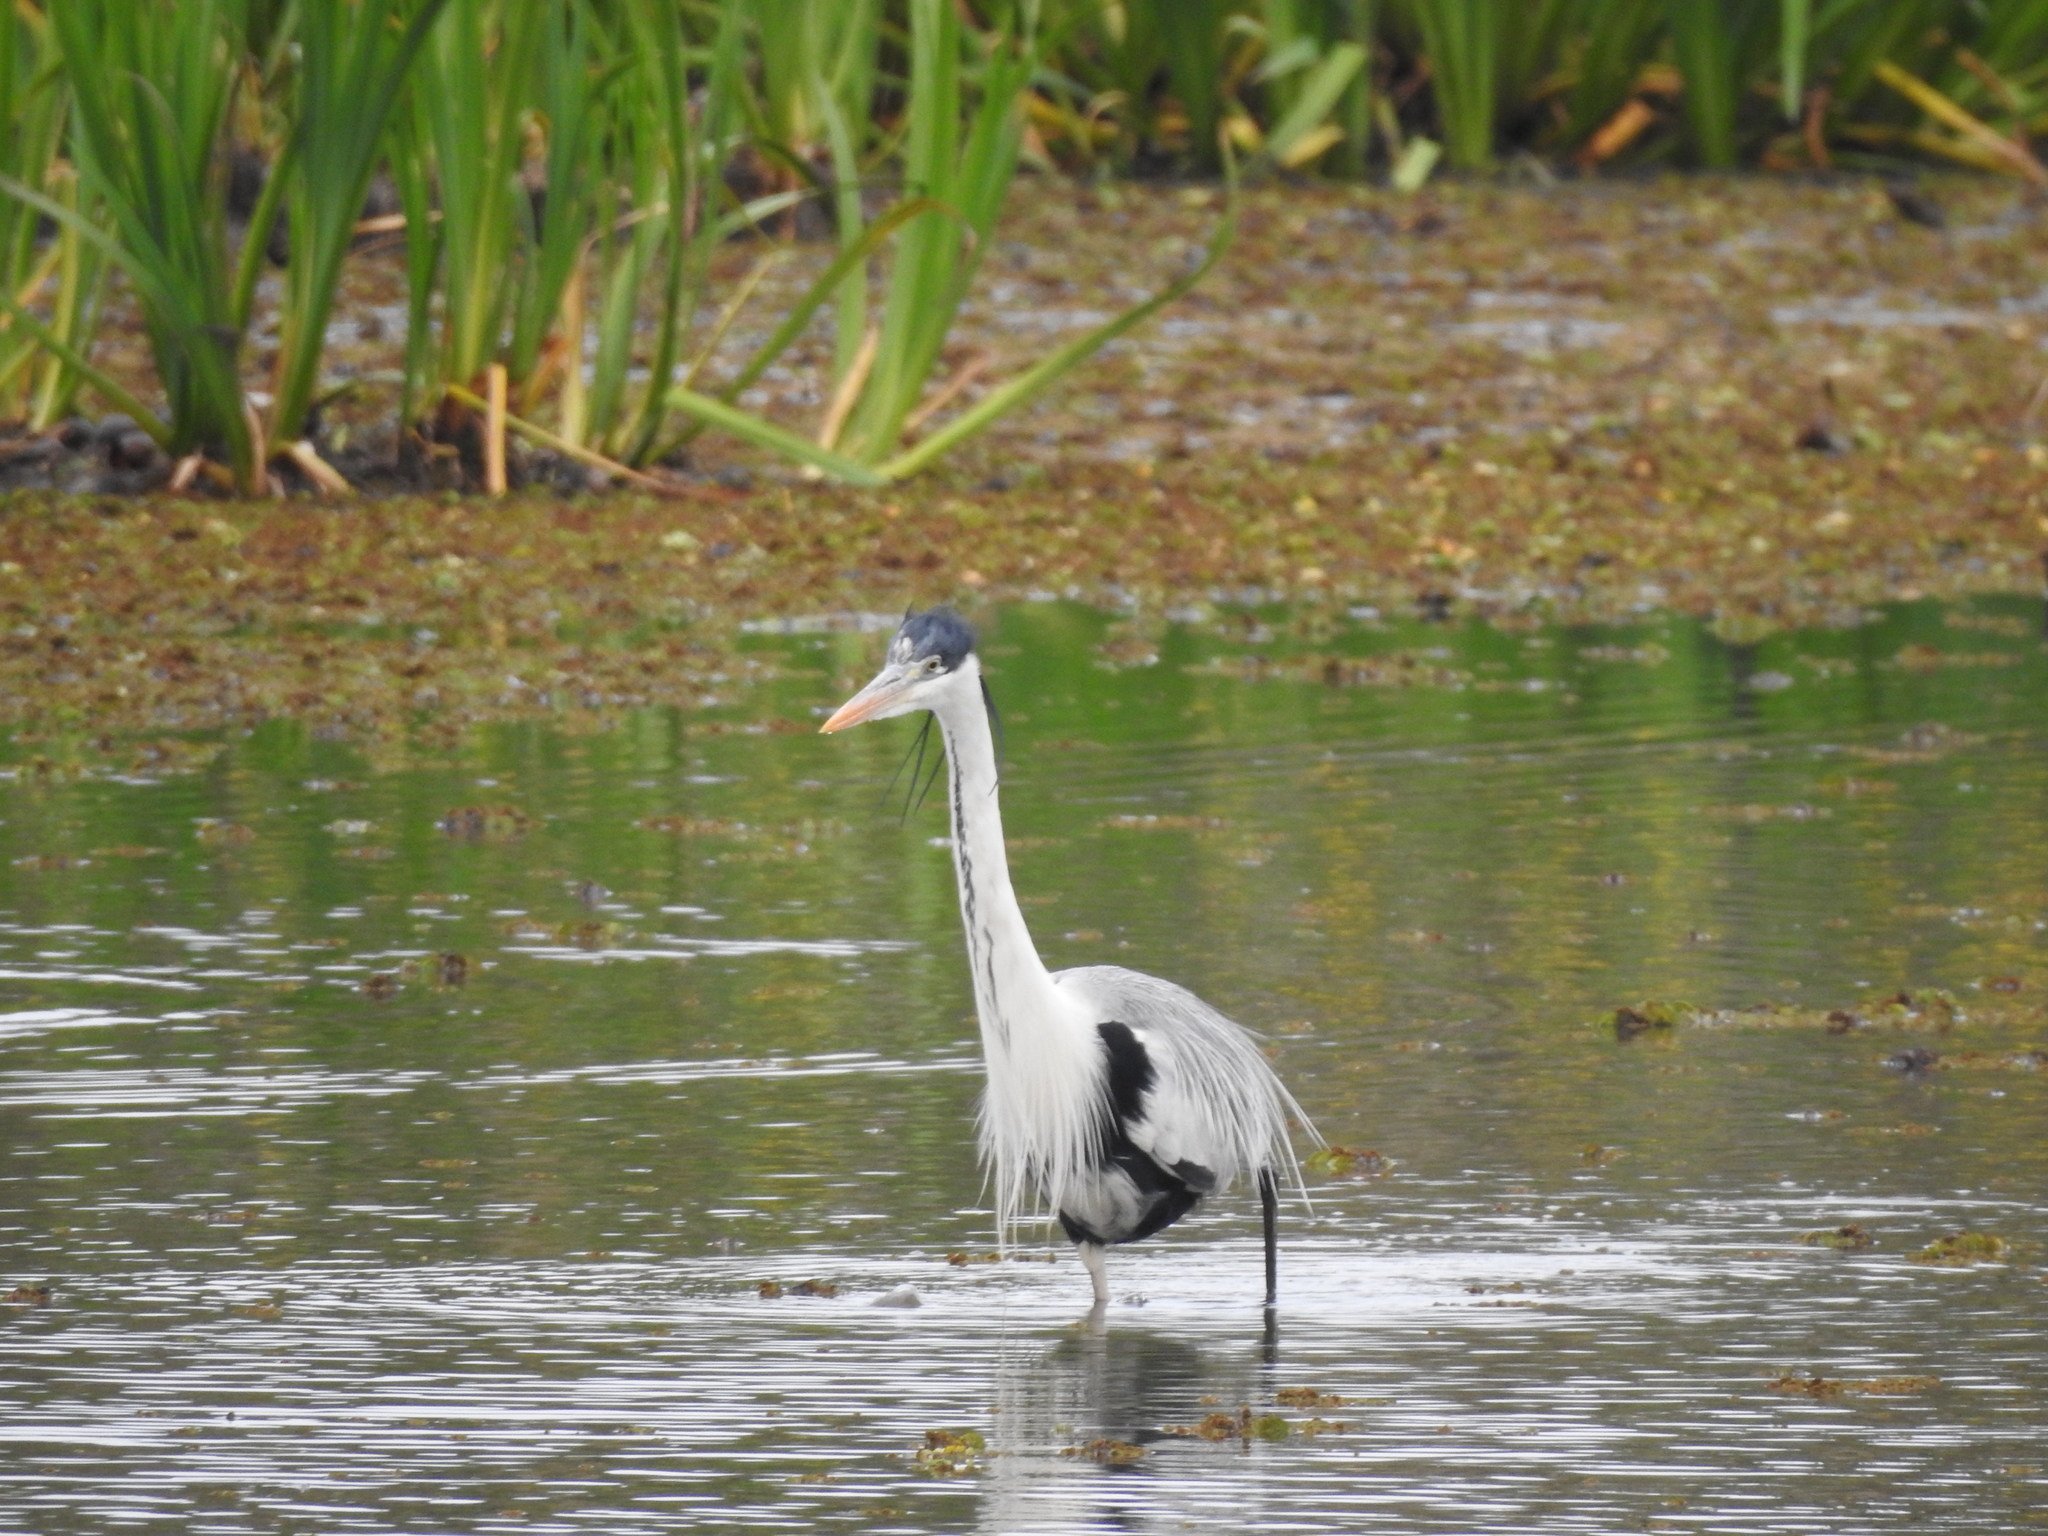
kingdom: Animalia
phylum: Chordata
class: Aves
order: Pelecaniformes
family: Ardeidae
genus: Ardea
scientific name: Ardea cocoi
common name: Cocoi heron
